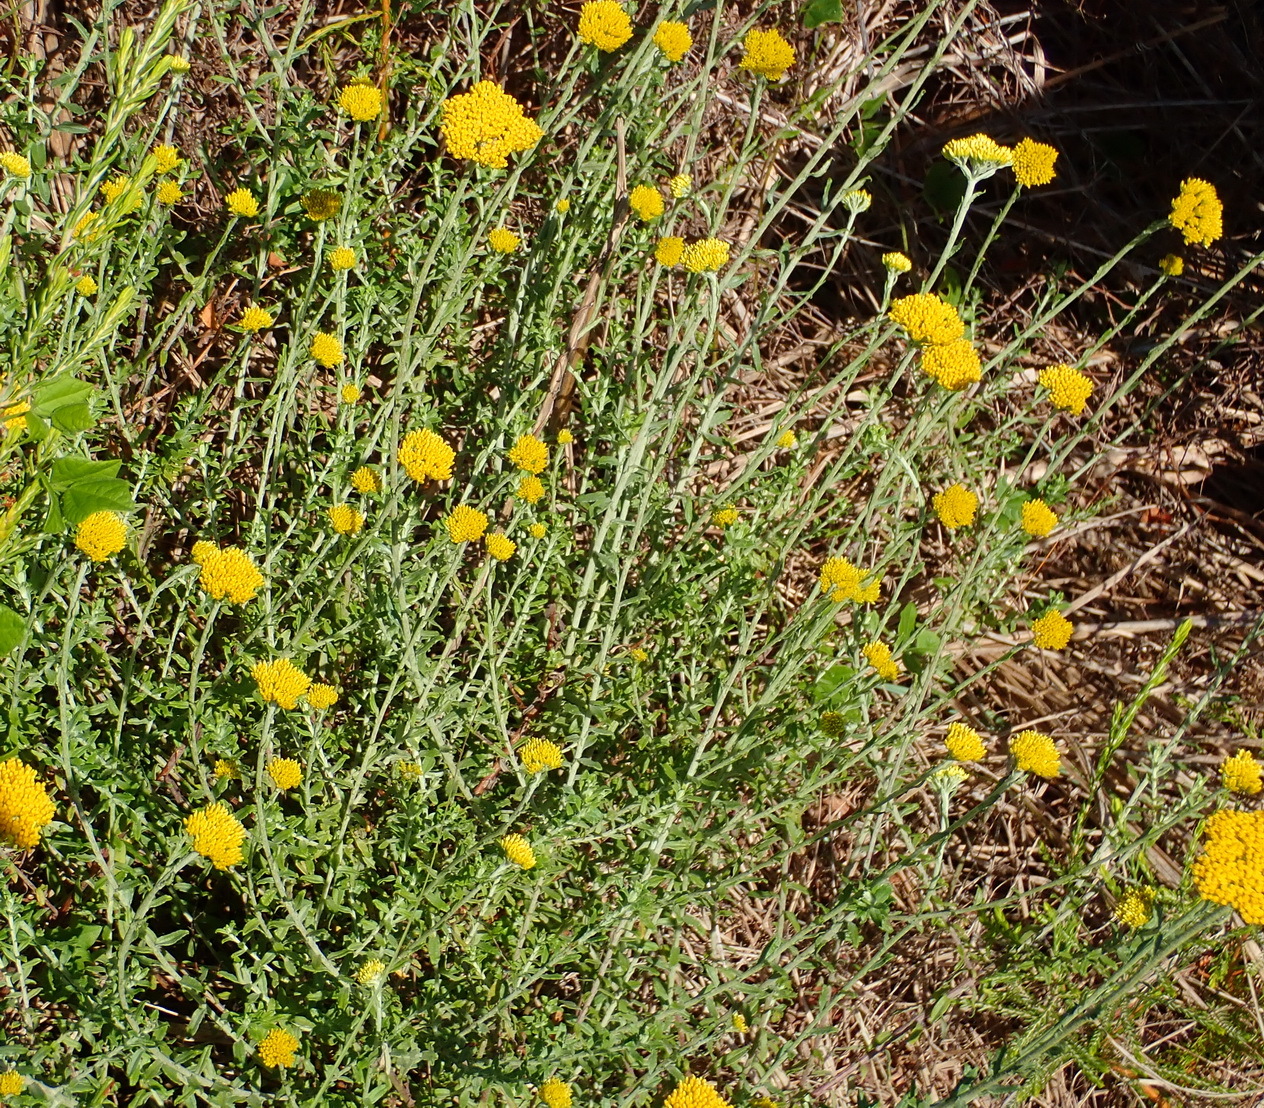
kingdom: Plantae
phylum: Tracheophyta
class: Magnoliopsida
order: Asterales
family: Asteraceae
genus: Helichrysum
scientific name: Helichrysum cymosum
